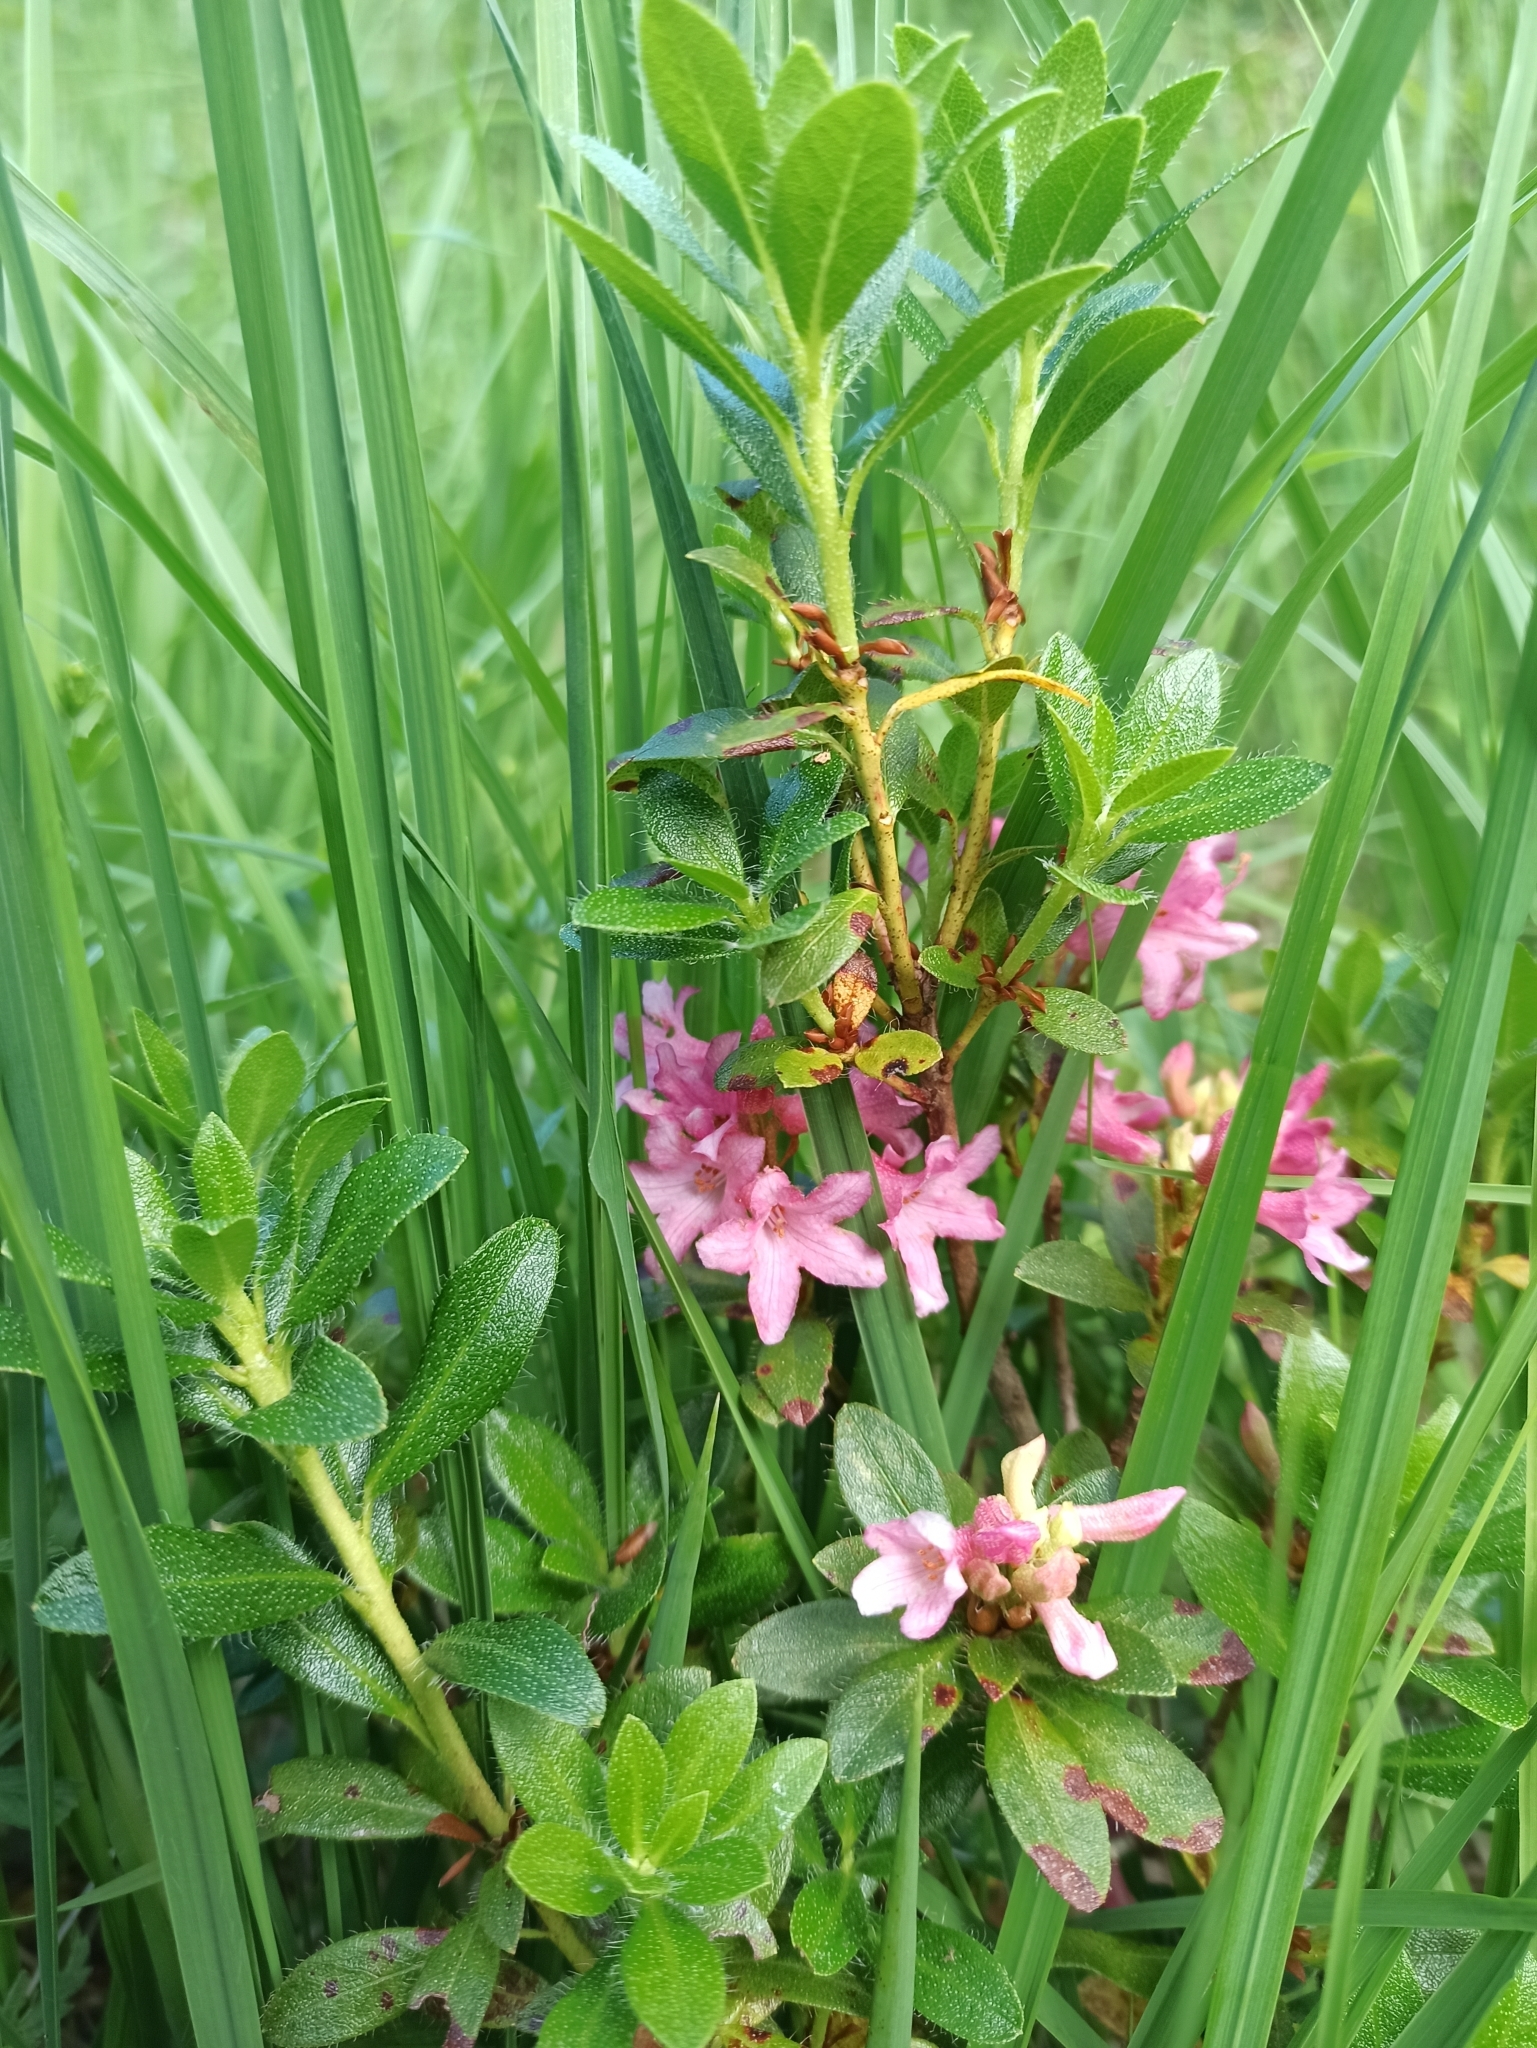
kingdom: Plantae
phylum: Tracheophyta
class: Magnoliopsida
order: Ericales
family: Ericaceae
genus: Rhododendron
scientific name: Rhododendron hirsutum
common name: Hairy alpenrose
